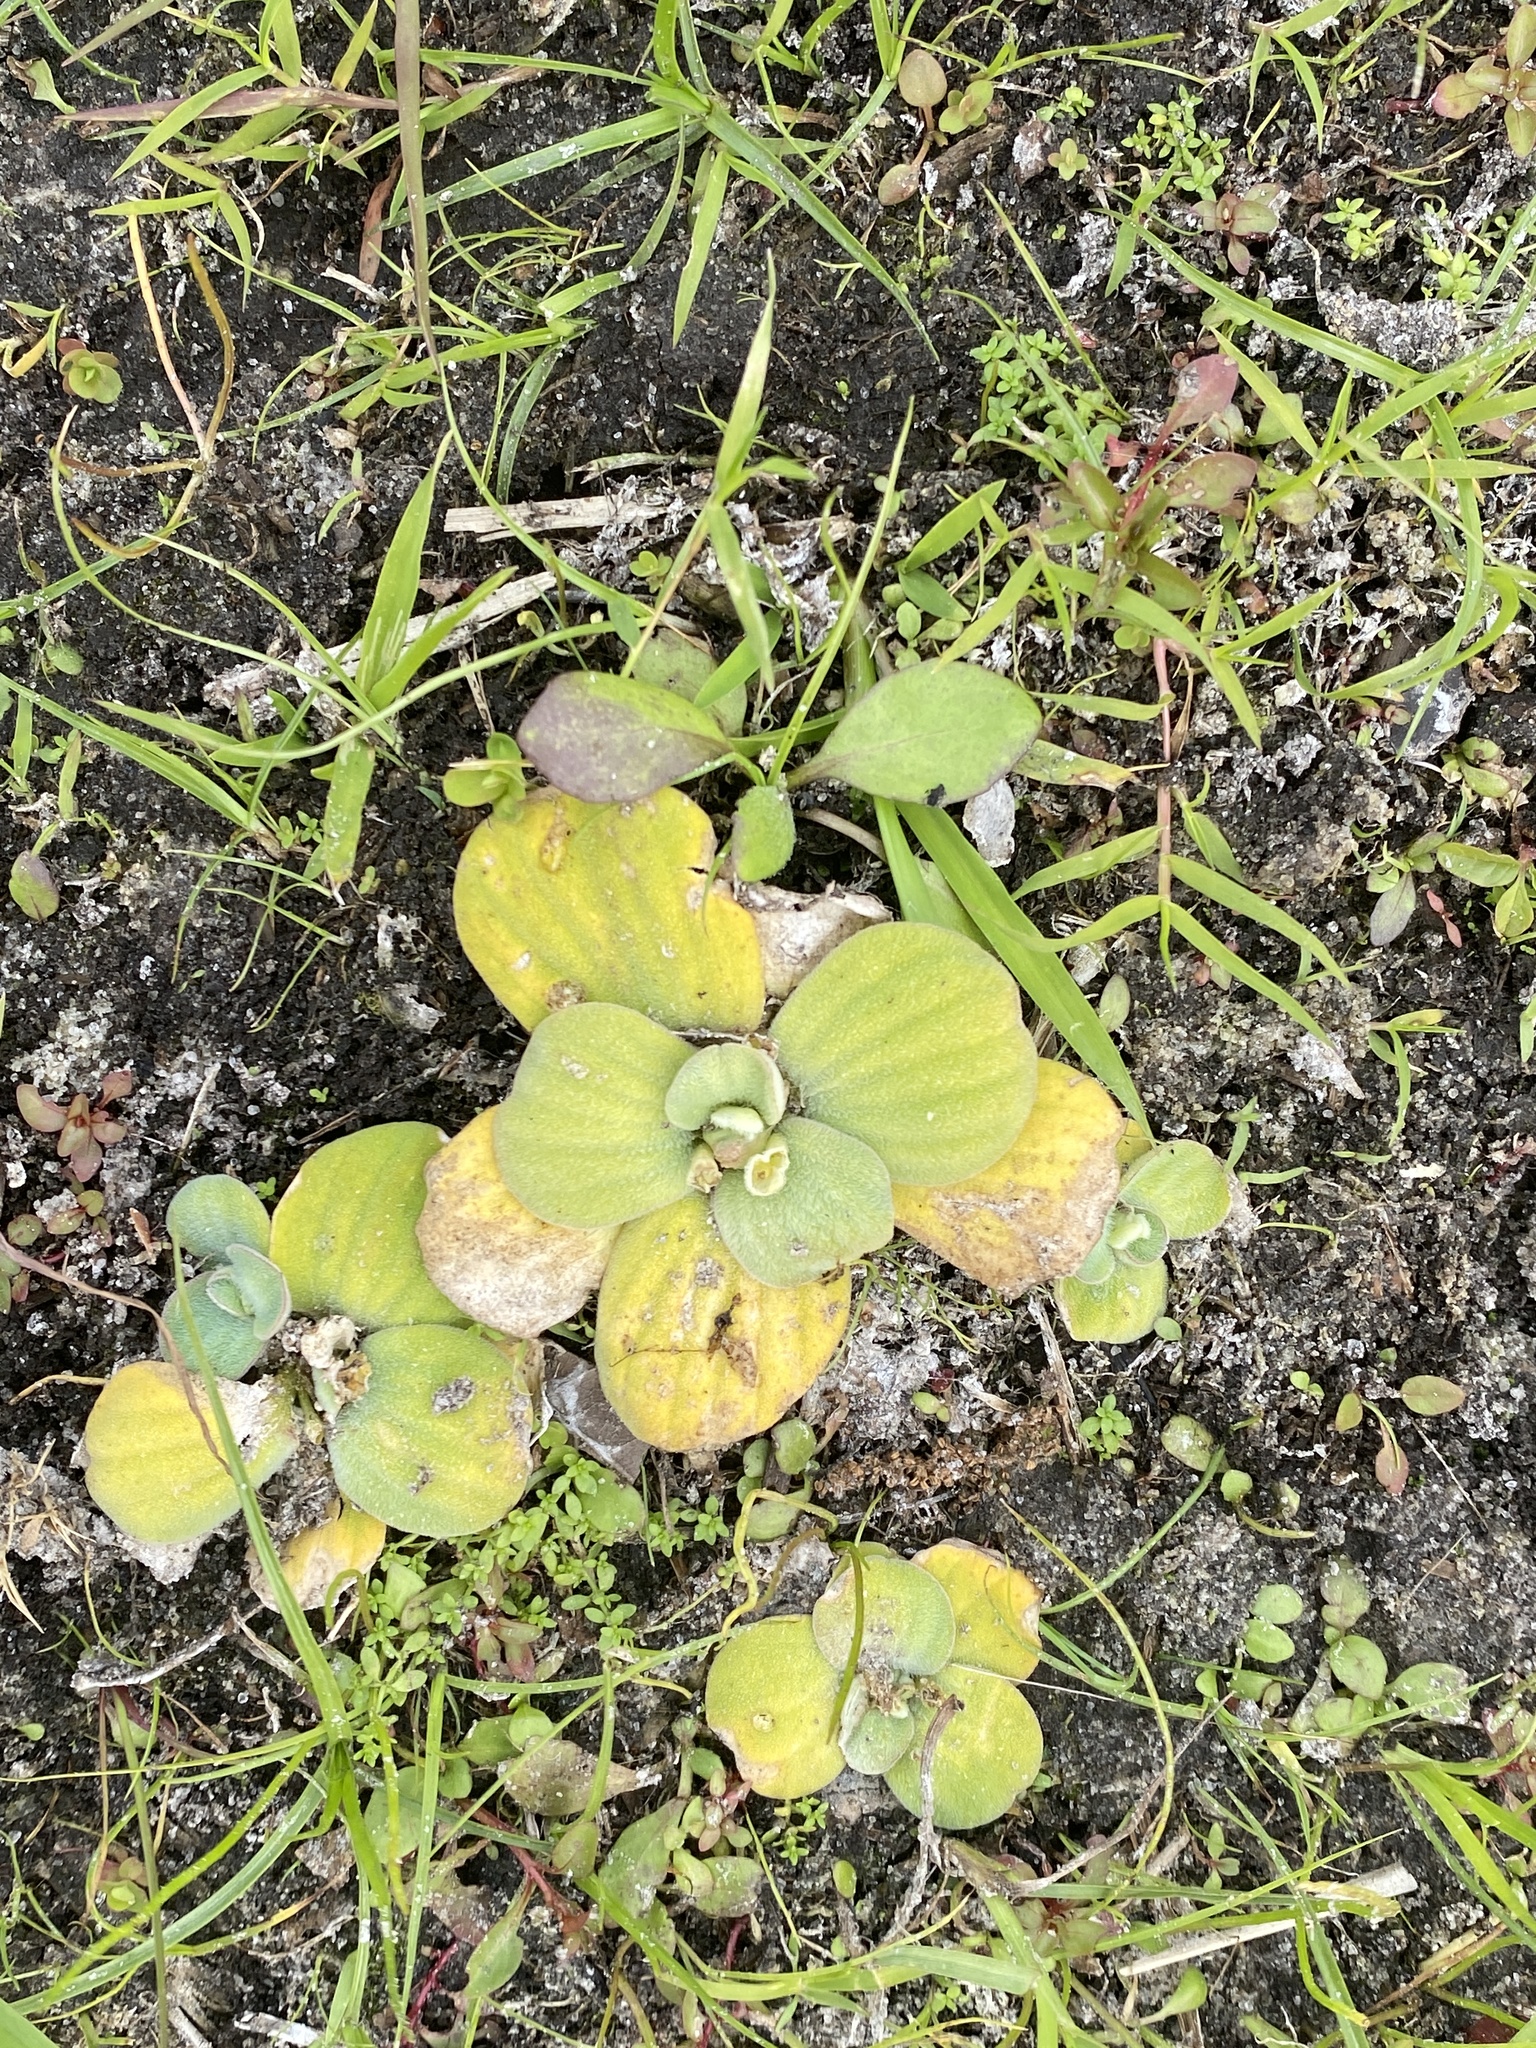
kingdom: Plantae
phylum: Tracheophyta
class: Liliopsida
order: Alismatales
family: Araceae
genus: Pistia
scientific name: Pistia stratiotes
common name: Water lettuce
